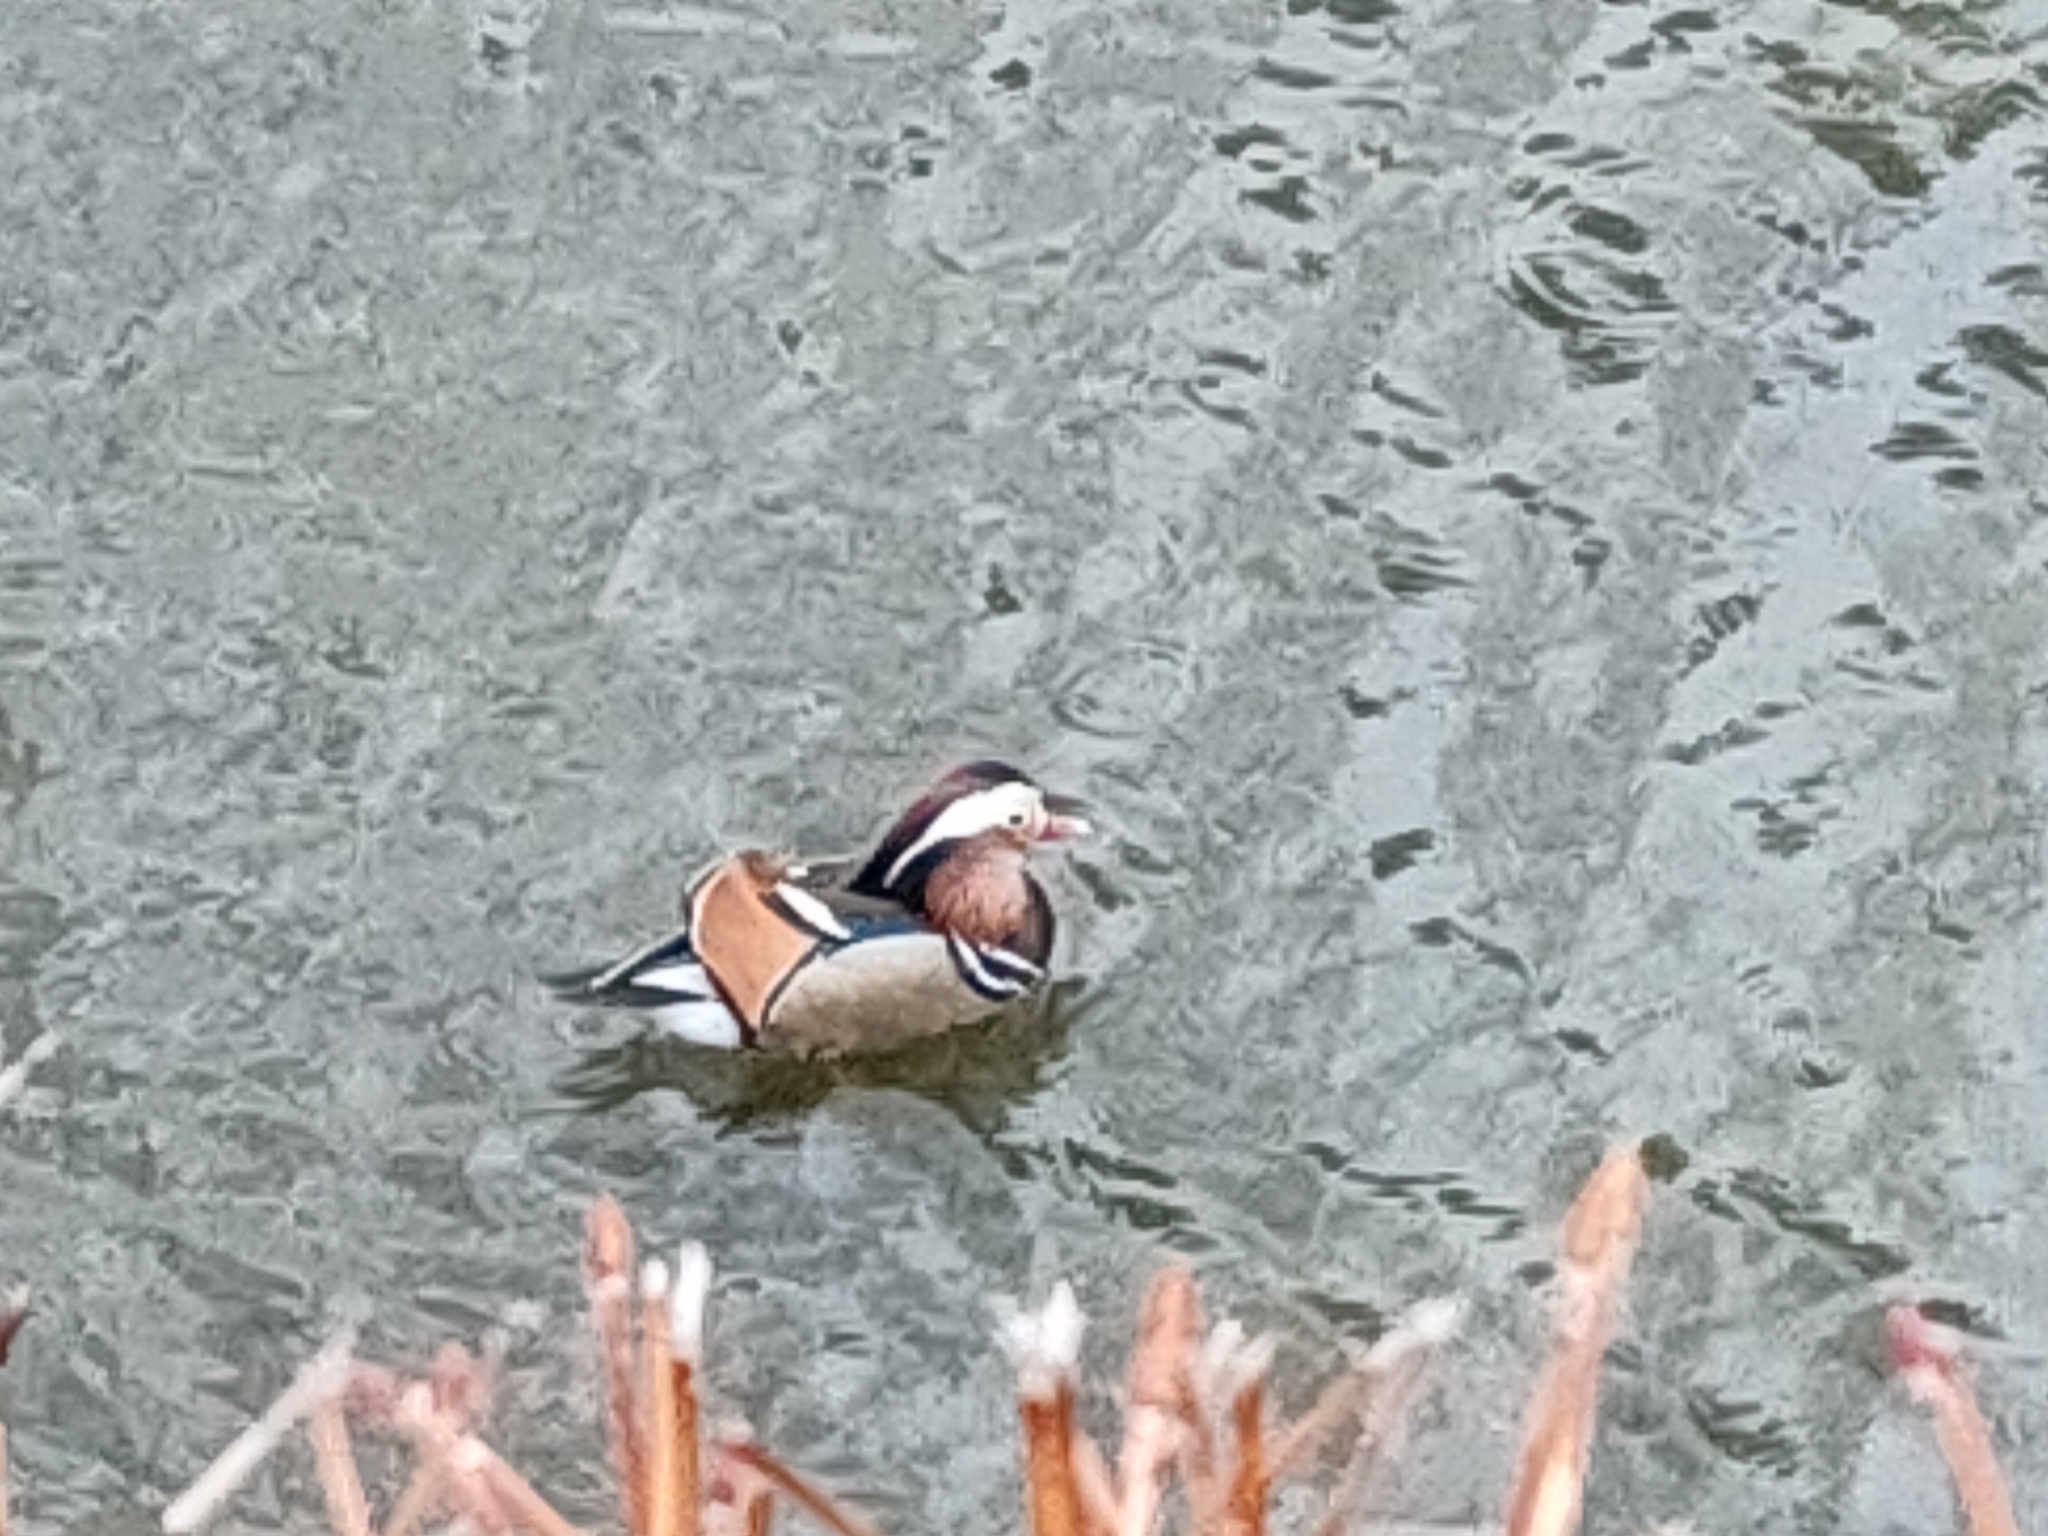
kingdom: Animalia
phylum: Chordata
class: Aves
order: Anseriformes
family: Anatidae
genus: Aix
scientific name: Aix galericulata
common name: Mandarin duck
